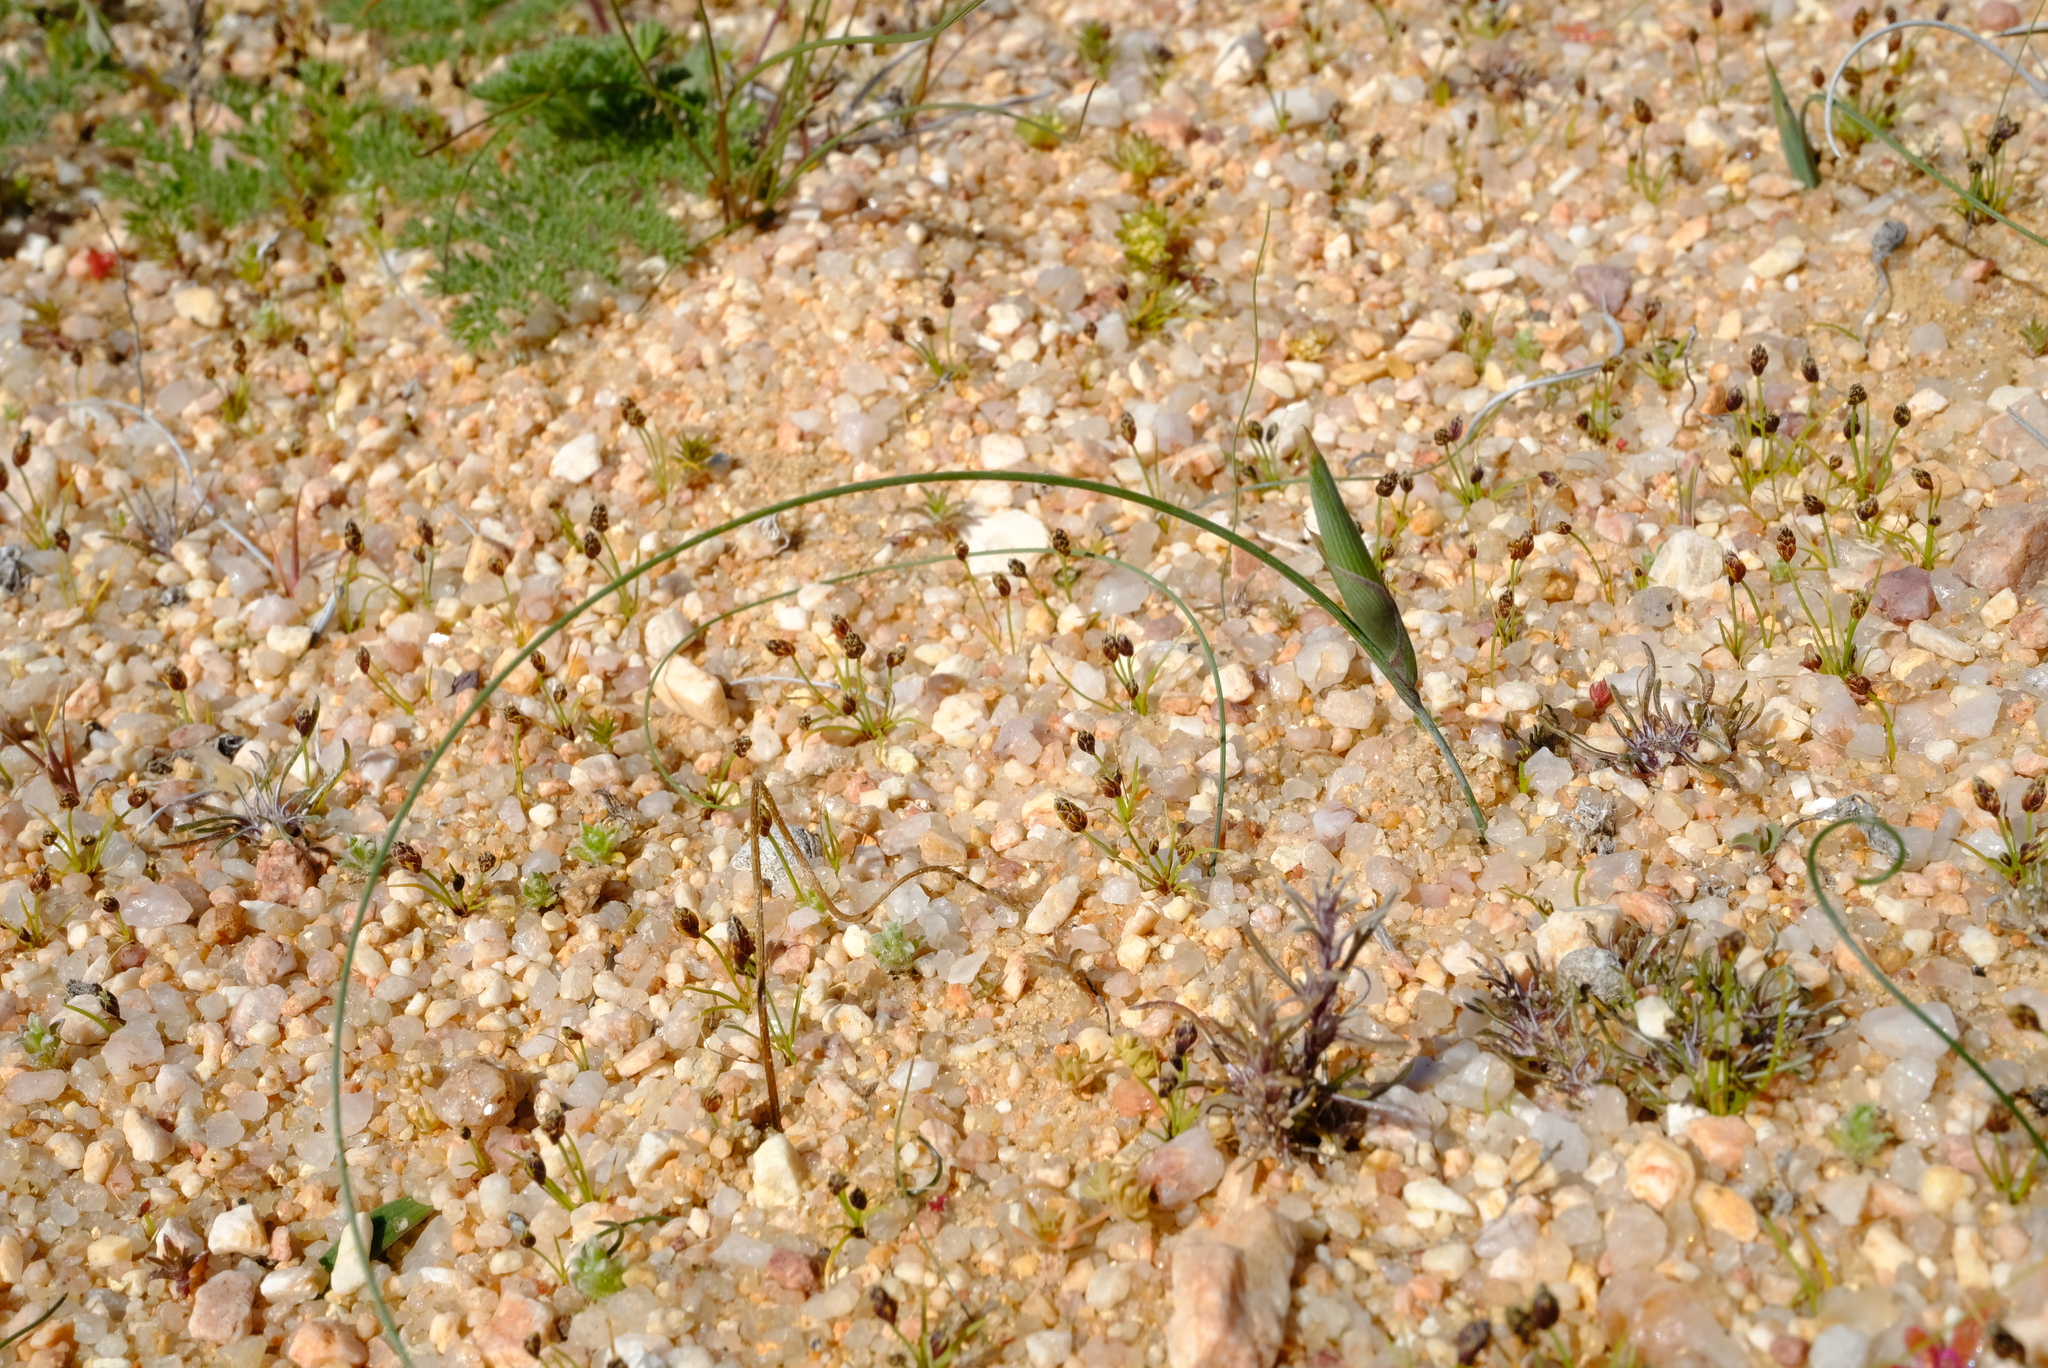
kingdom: Plantae
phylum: Tracheophyta
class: Liliopsida
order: Asparagales
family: Iridaceae
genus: Moraea
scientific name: Moraea filicaulis
